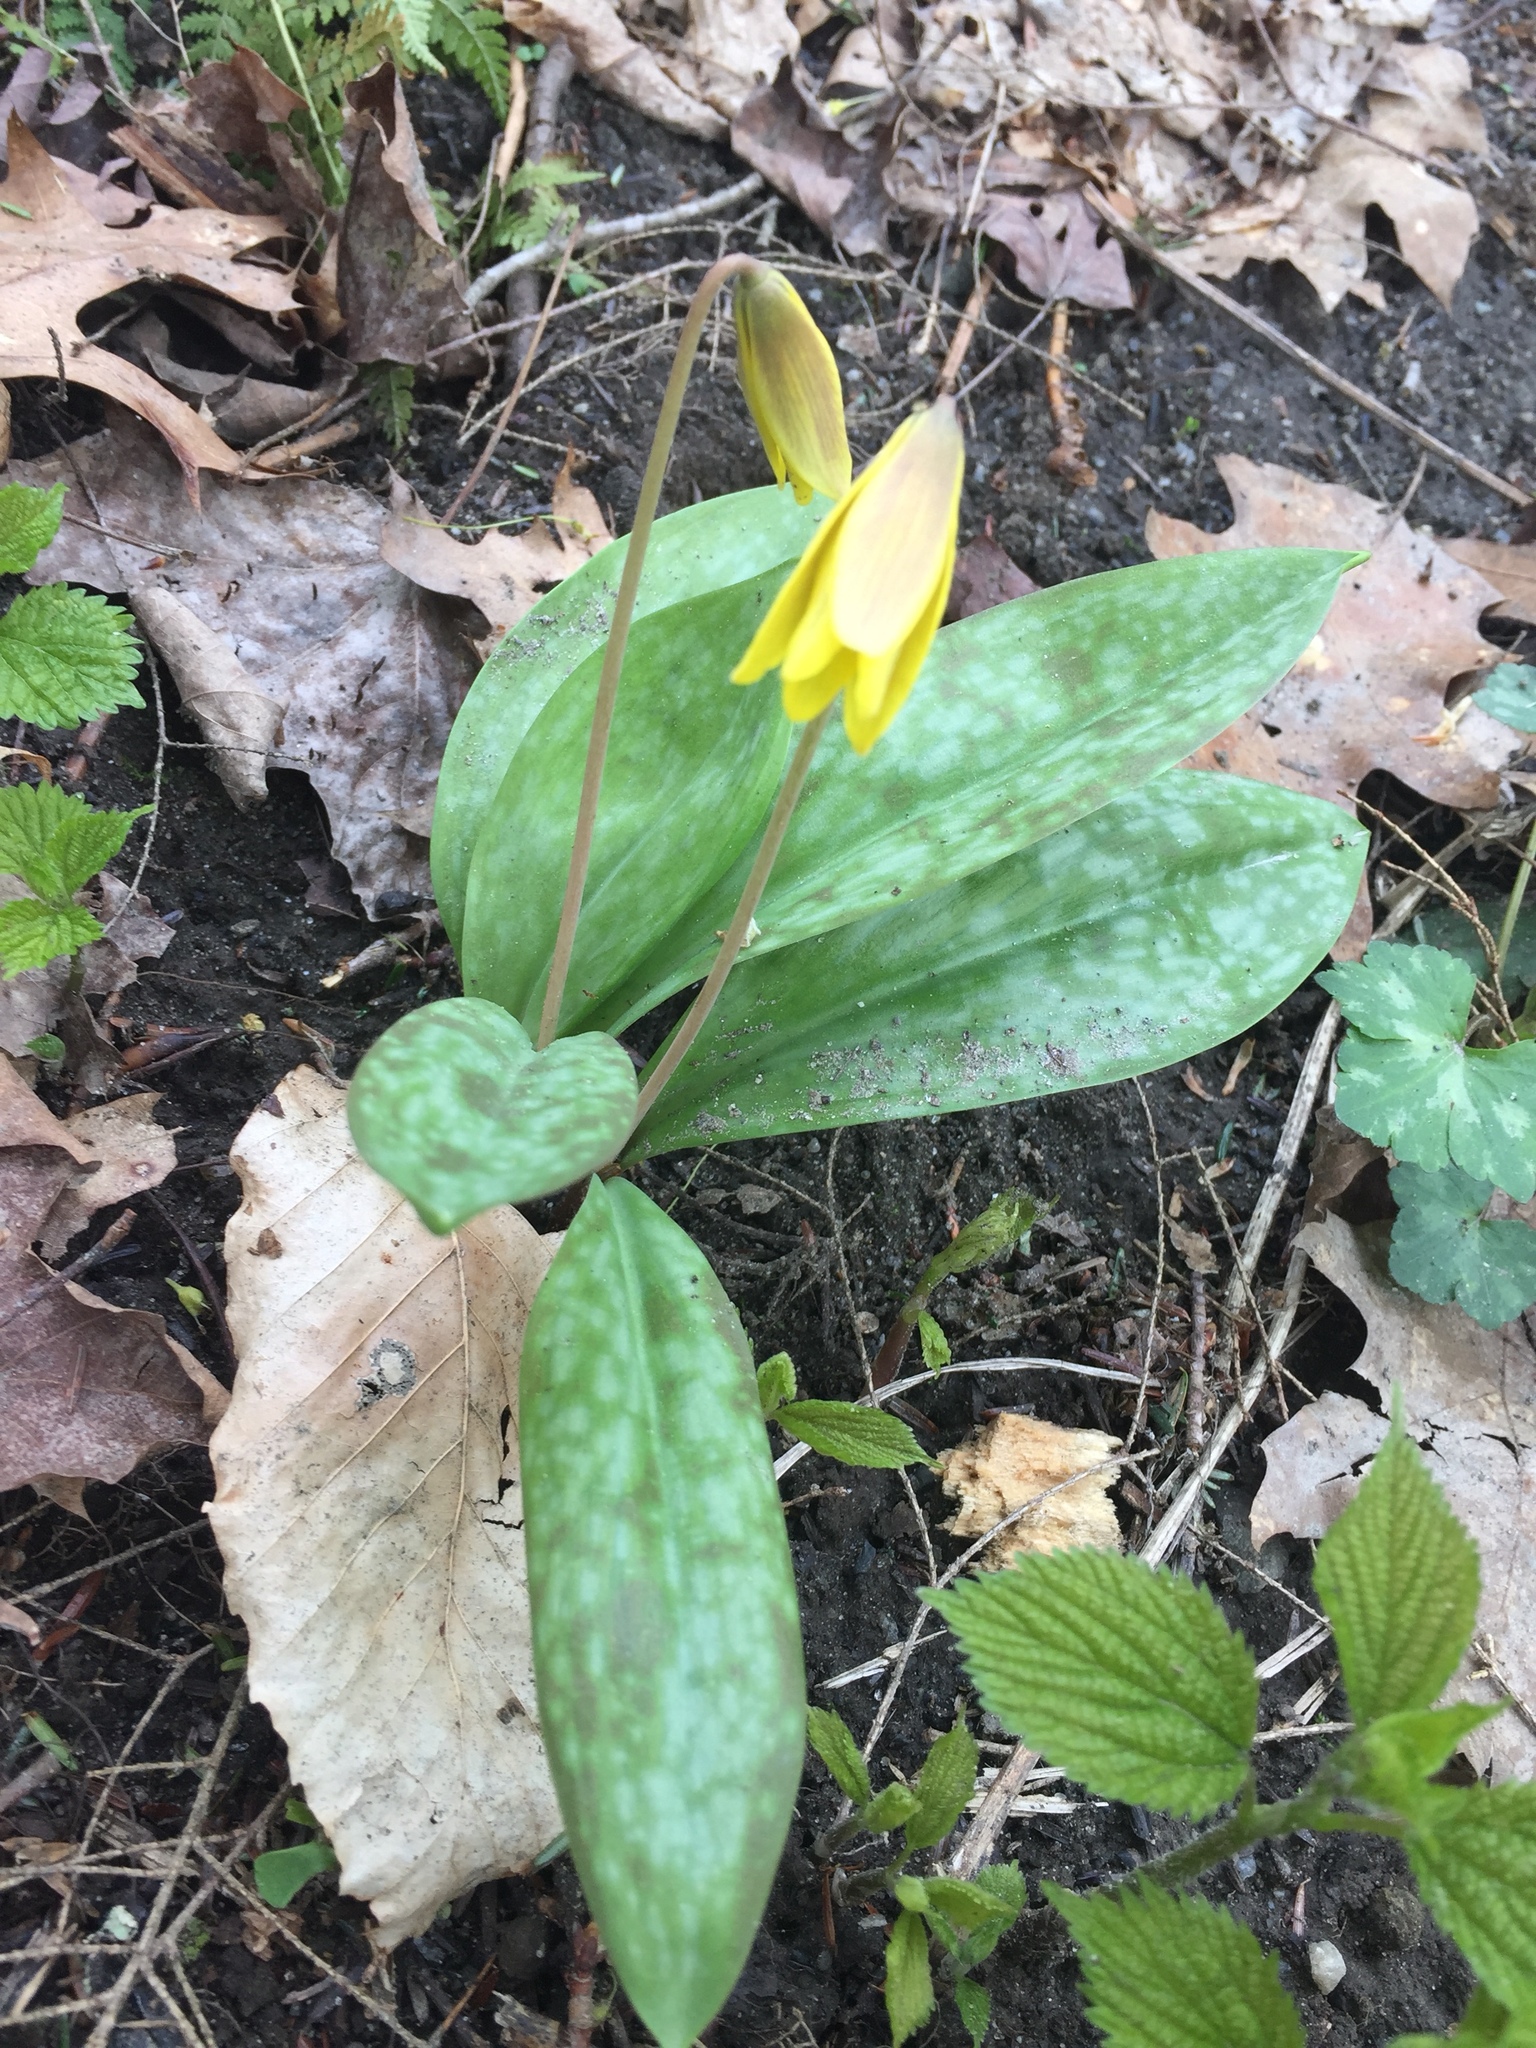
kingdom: Plantae
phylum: Tracheophyta
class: Liliopsida
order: Liliales
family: Liliaceae
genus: Erythronium
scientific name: Erythronium americanum
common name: Yellow adder's-tongue
